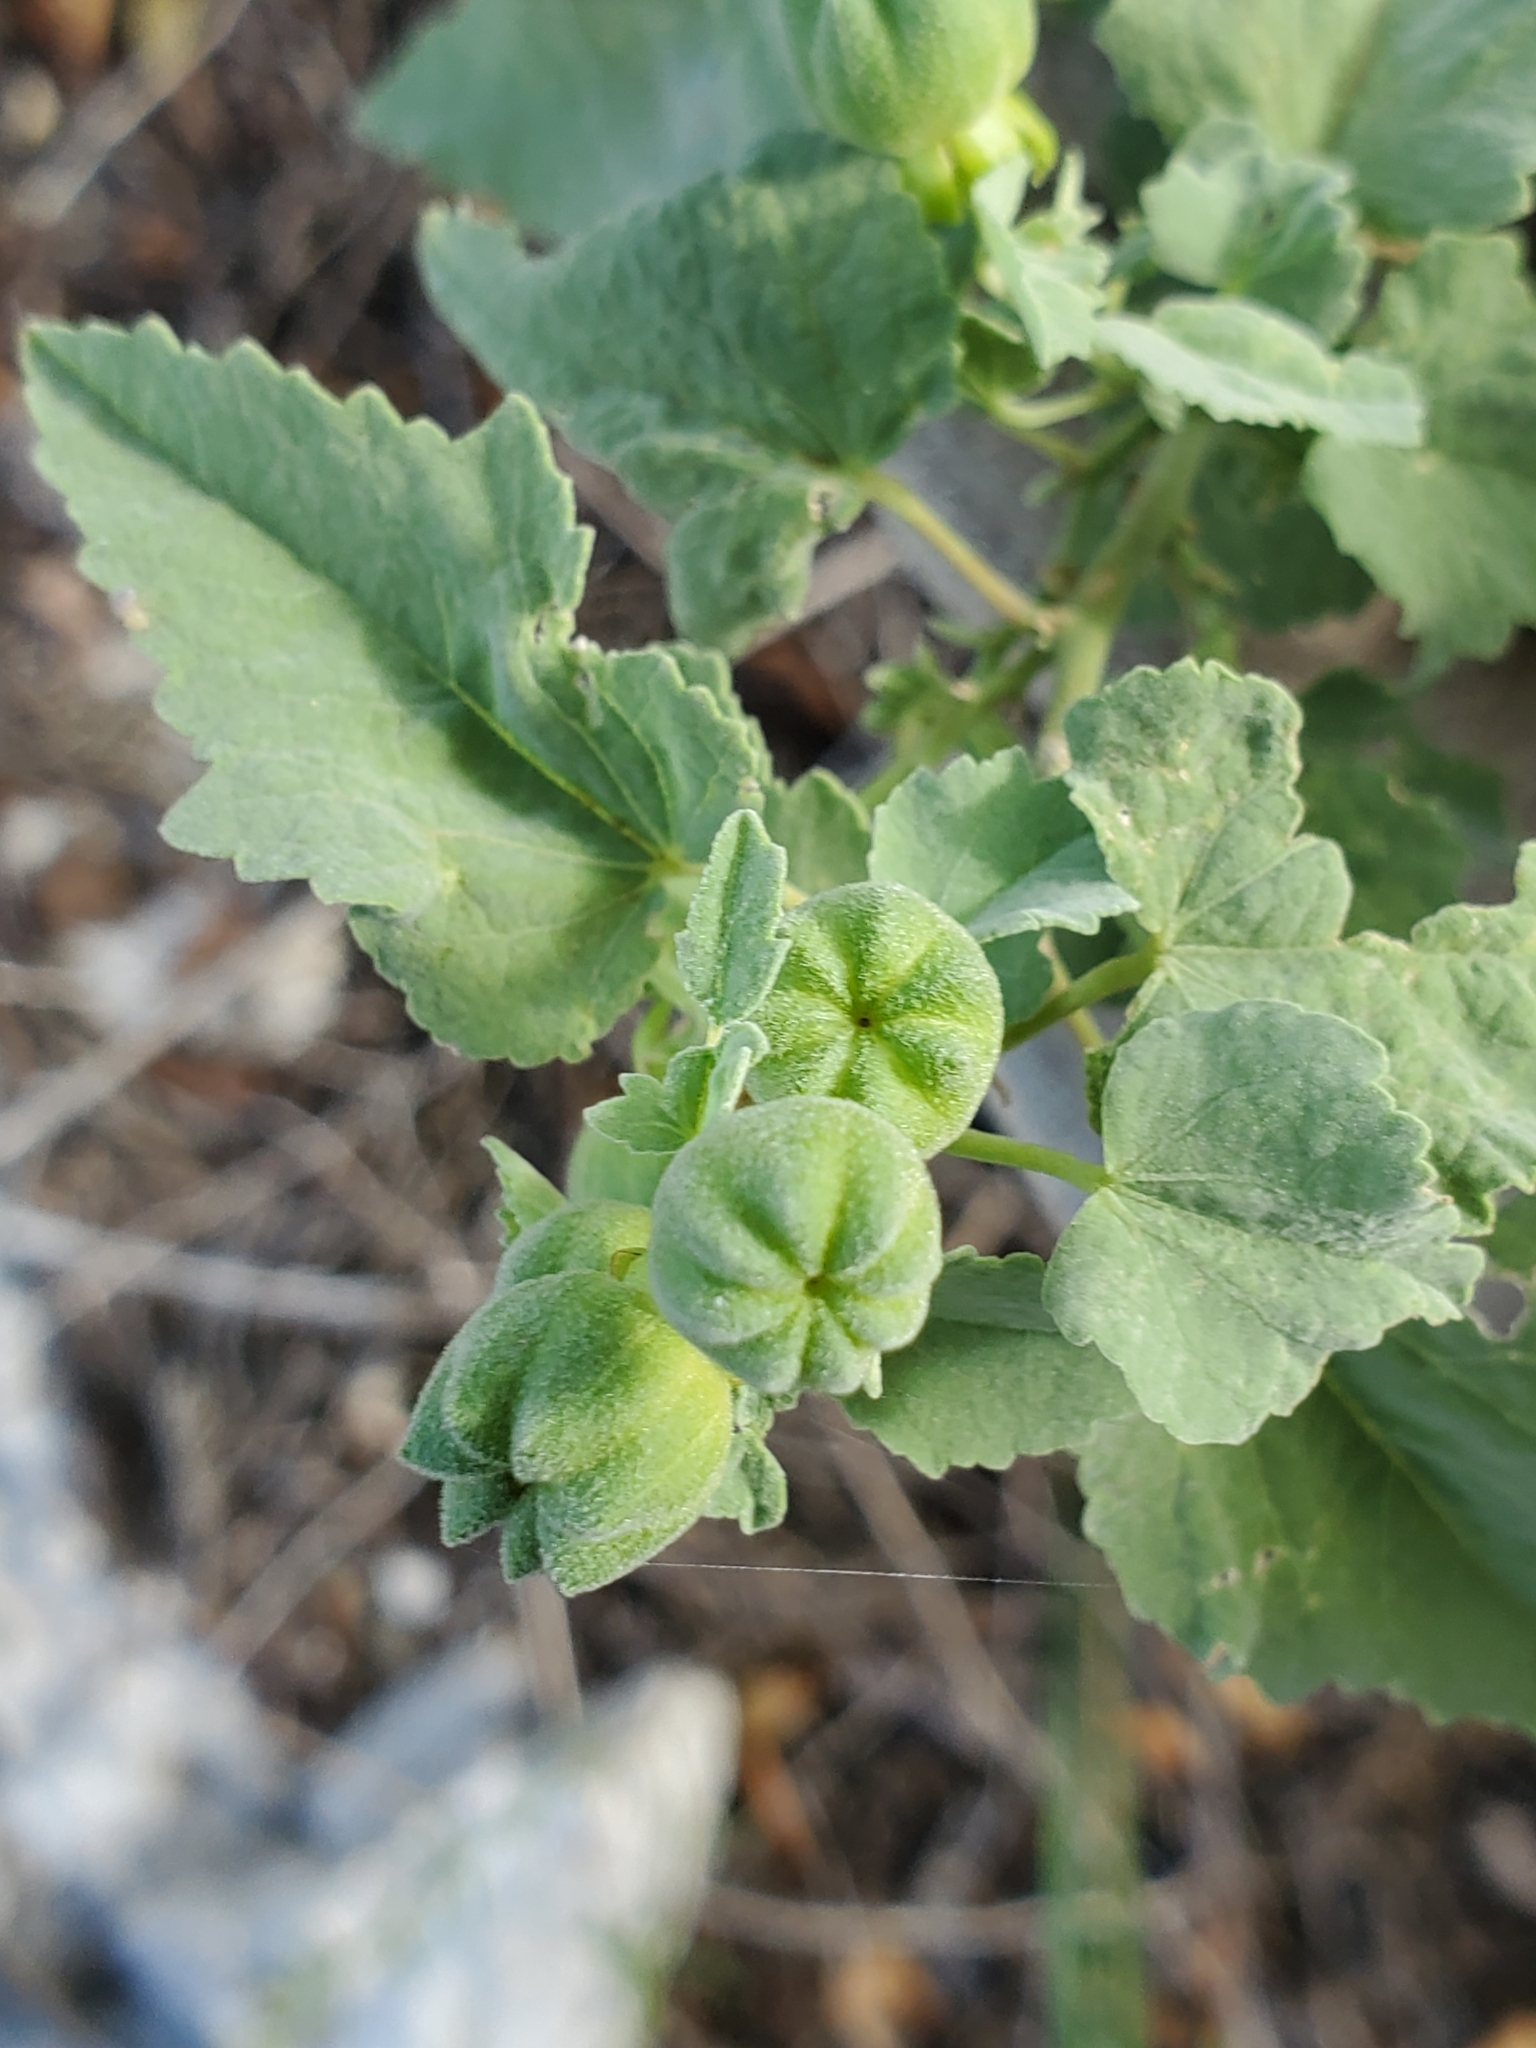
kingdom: Plantae
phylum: Tracheophyta
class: Magnoliopsida
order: Malvales
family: Malvaceae
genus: Abutilon
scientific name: Abutilon fruticosum
